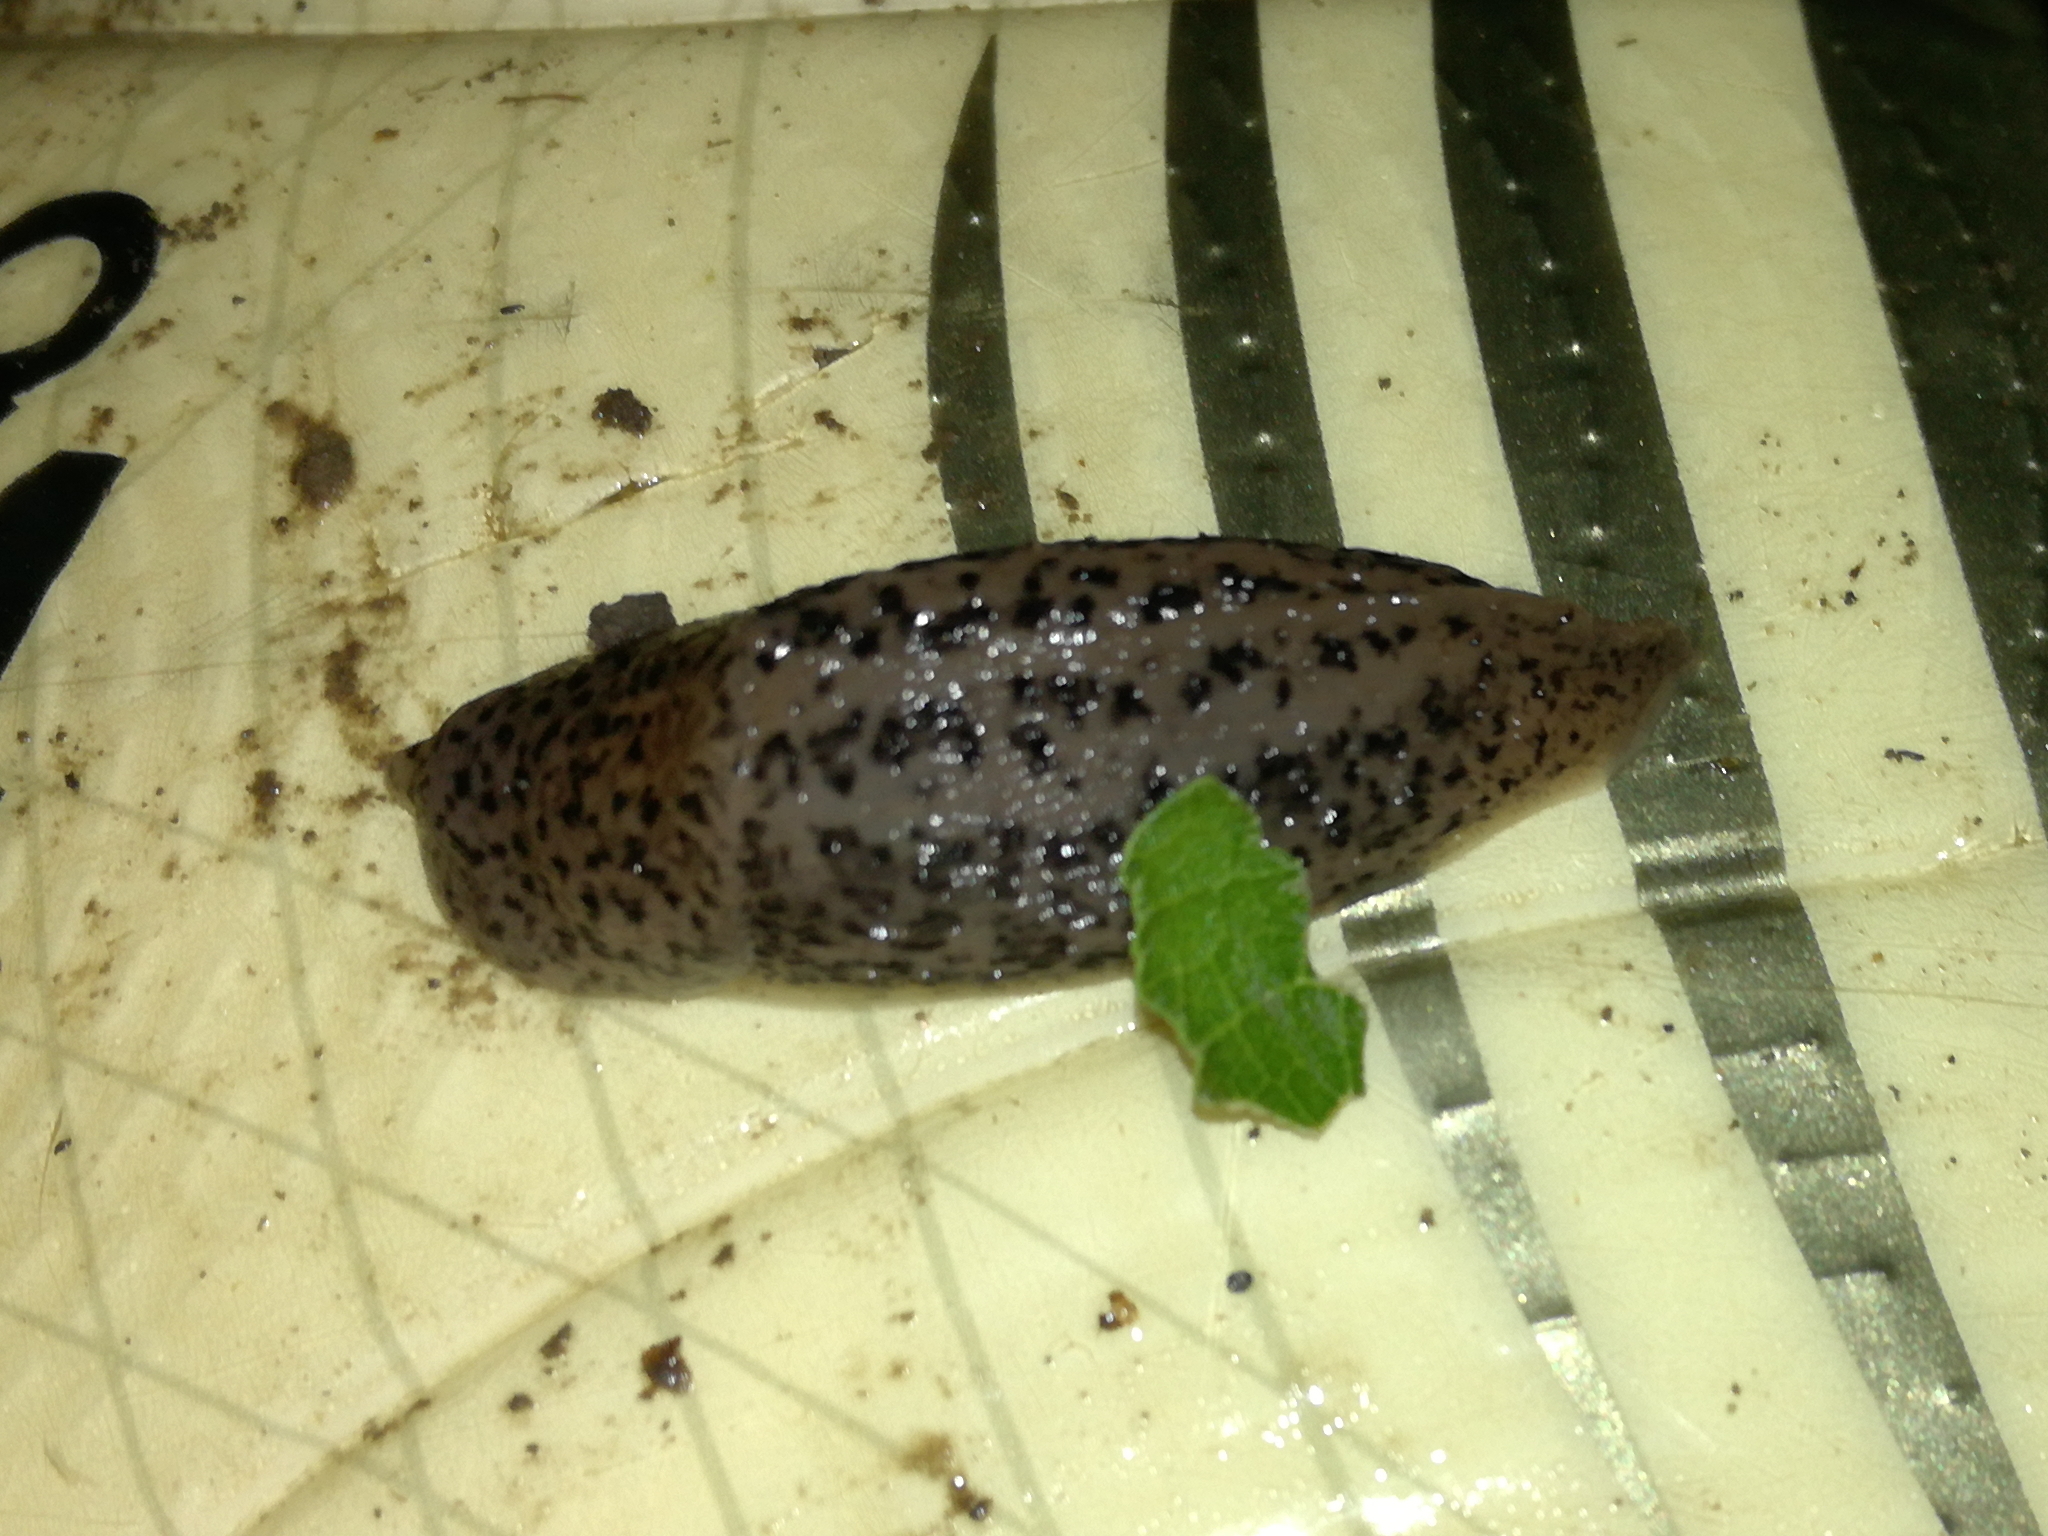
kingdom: Animalia
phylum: Mollusca
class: Gastropoda
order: Stylommatophora
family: Limacidae
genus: Limax
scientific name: Limax maximus
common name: Great grey slug
